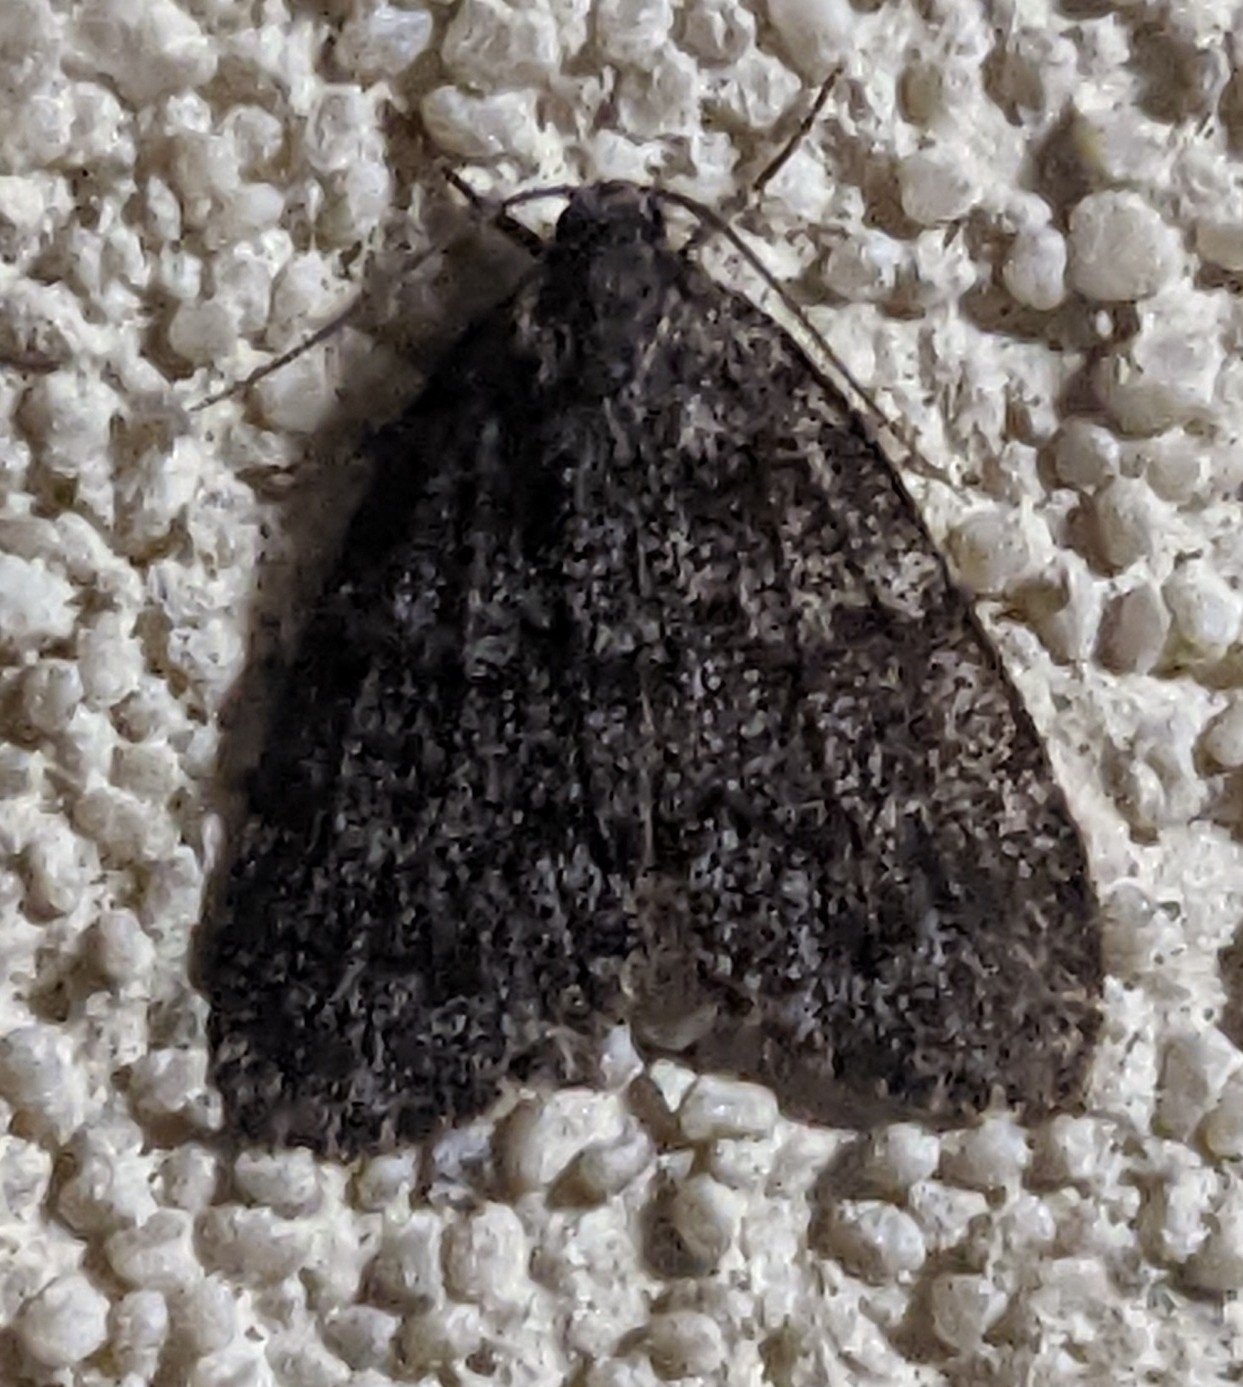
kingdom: Animalia
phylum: Arthropoda
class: Insecta
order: Lepidoptera
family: Erebidae
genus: Halone
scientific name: Halone consolatrix
